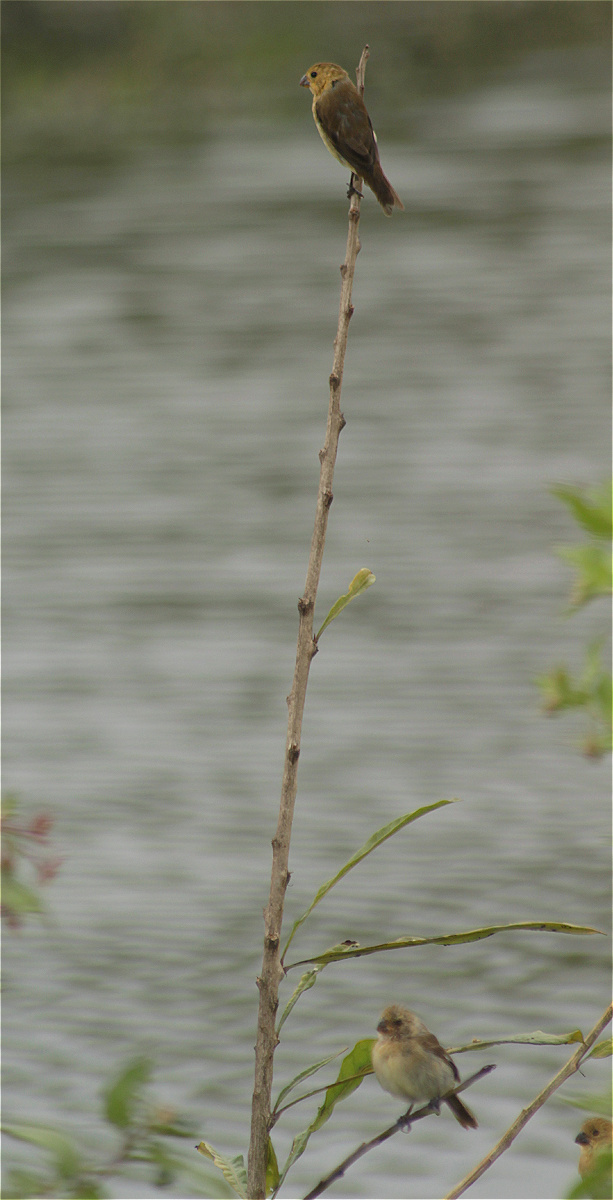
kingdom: Animalia
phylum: Chordata
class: Aves
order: Passeriformes
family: Thraupidae
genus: Sporophila
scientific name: Sporophila corvina
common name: Variable seedeater
